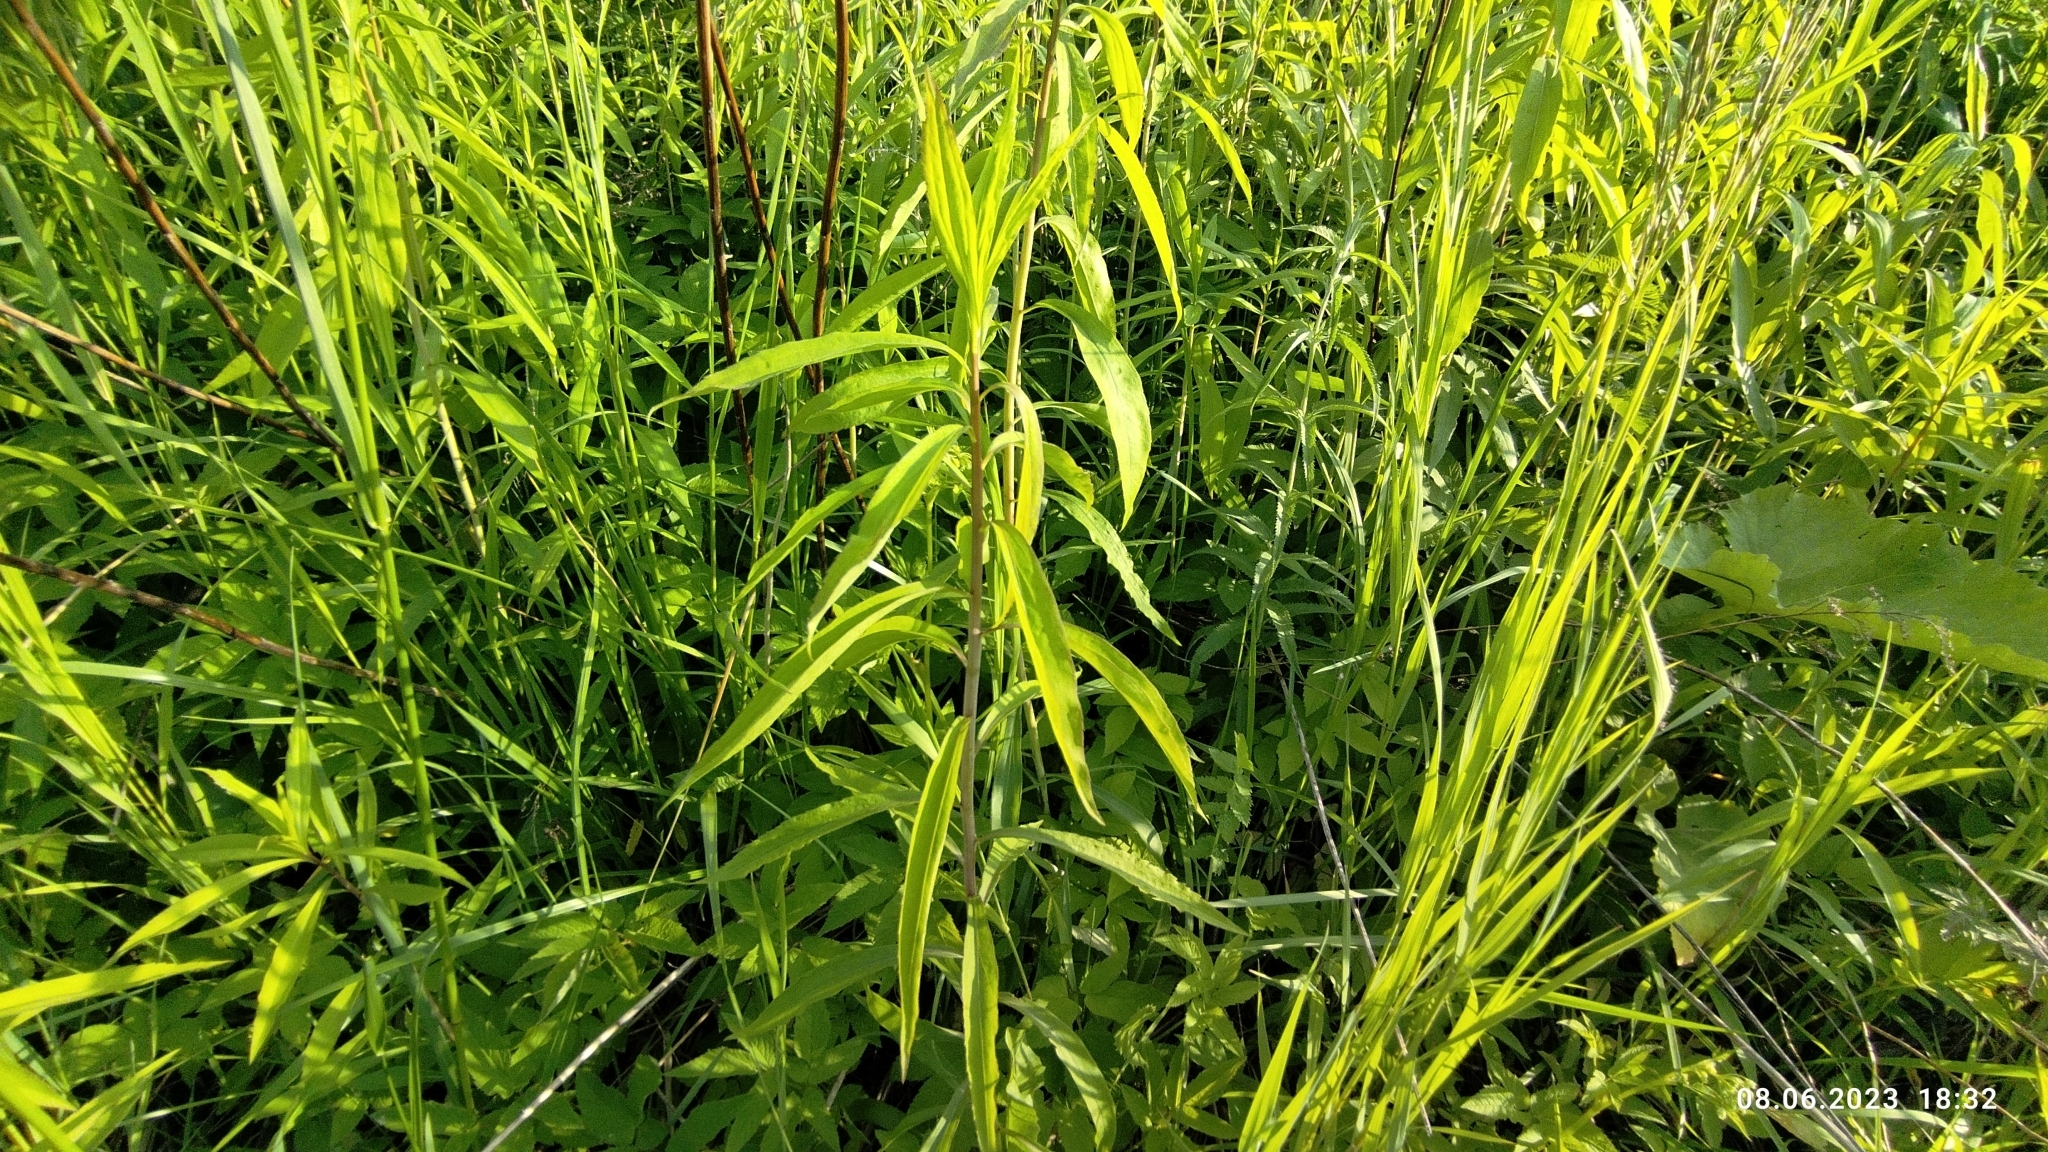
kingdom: Plantae
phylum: Tracheophyta
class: Magnoliopsida
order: Asterales
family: Asteraceae
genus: Solidago
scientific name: Solidago gigantea
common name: Giant goldenrod
